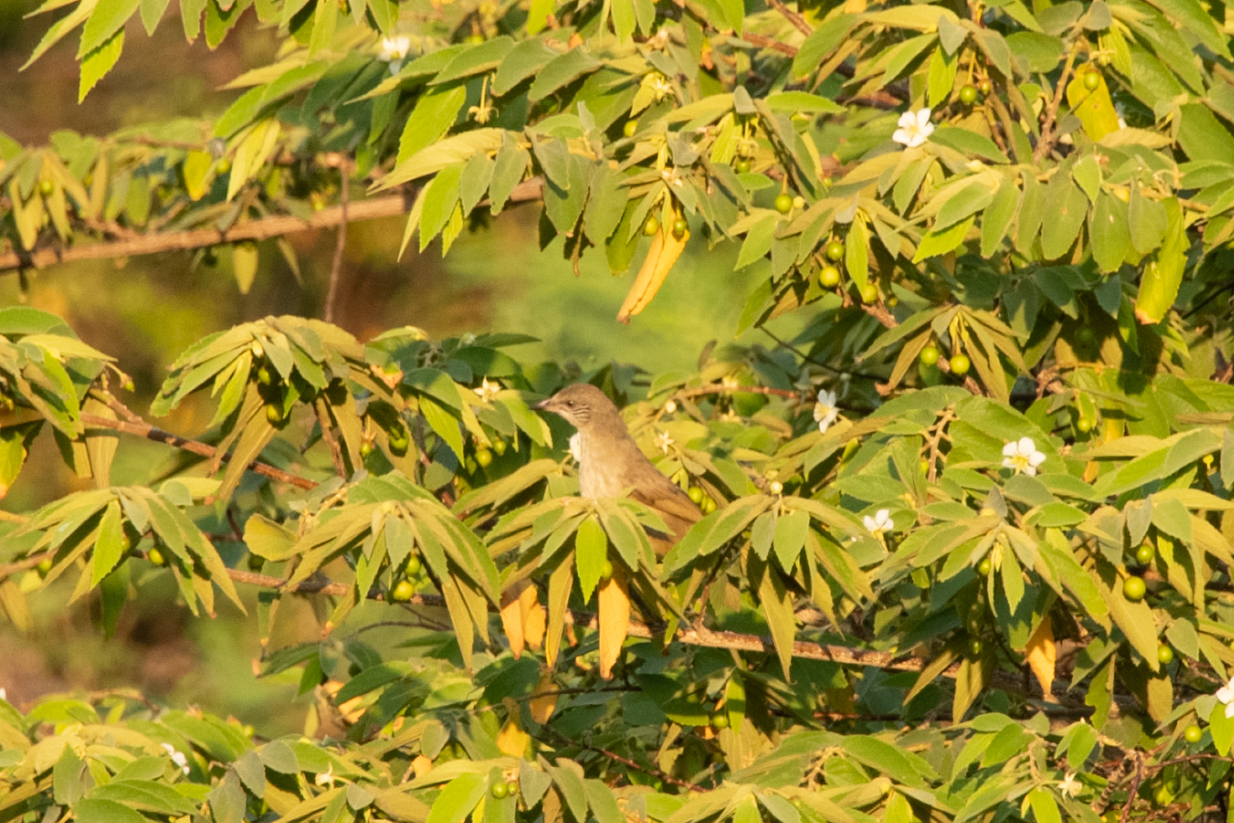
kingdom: Animalia
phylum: Chordata
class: Aves
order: Passeriformes
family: Pycnonotidae
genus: Pycnonotus
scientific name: Pycnonotus blanfordi
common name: Streak-eared bulbul
